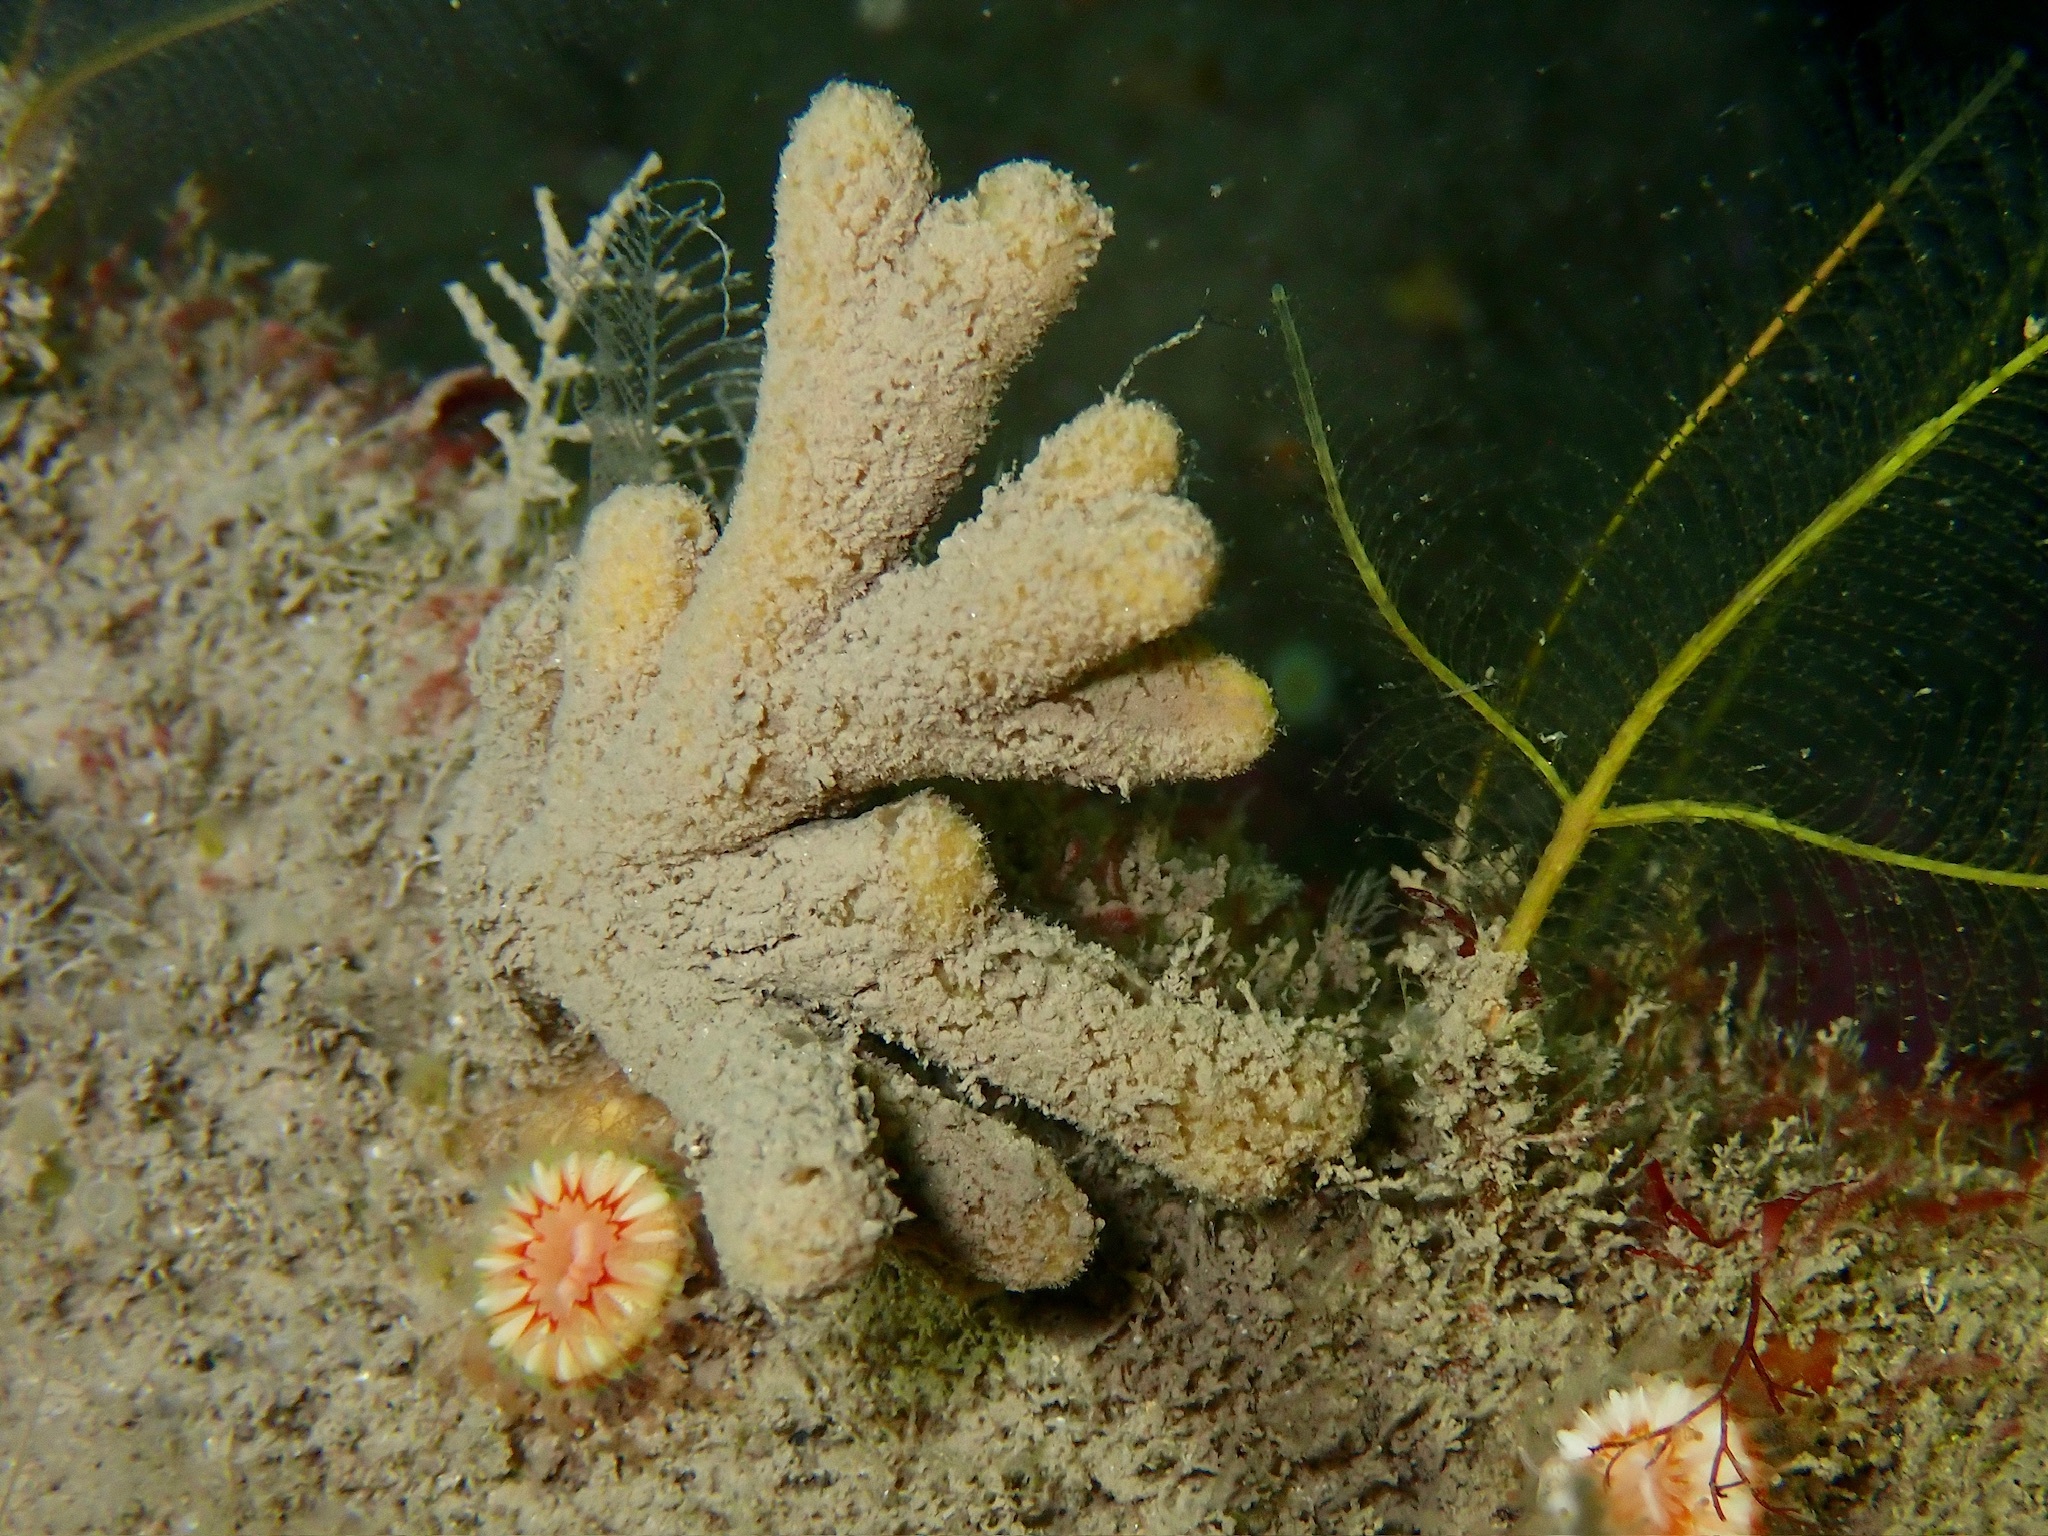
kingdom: Animalia
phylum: Porifera
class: Demospongiae
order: Axinellida
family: Stelligeridae
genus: Stelligera
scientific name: Stelligera stuposa
